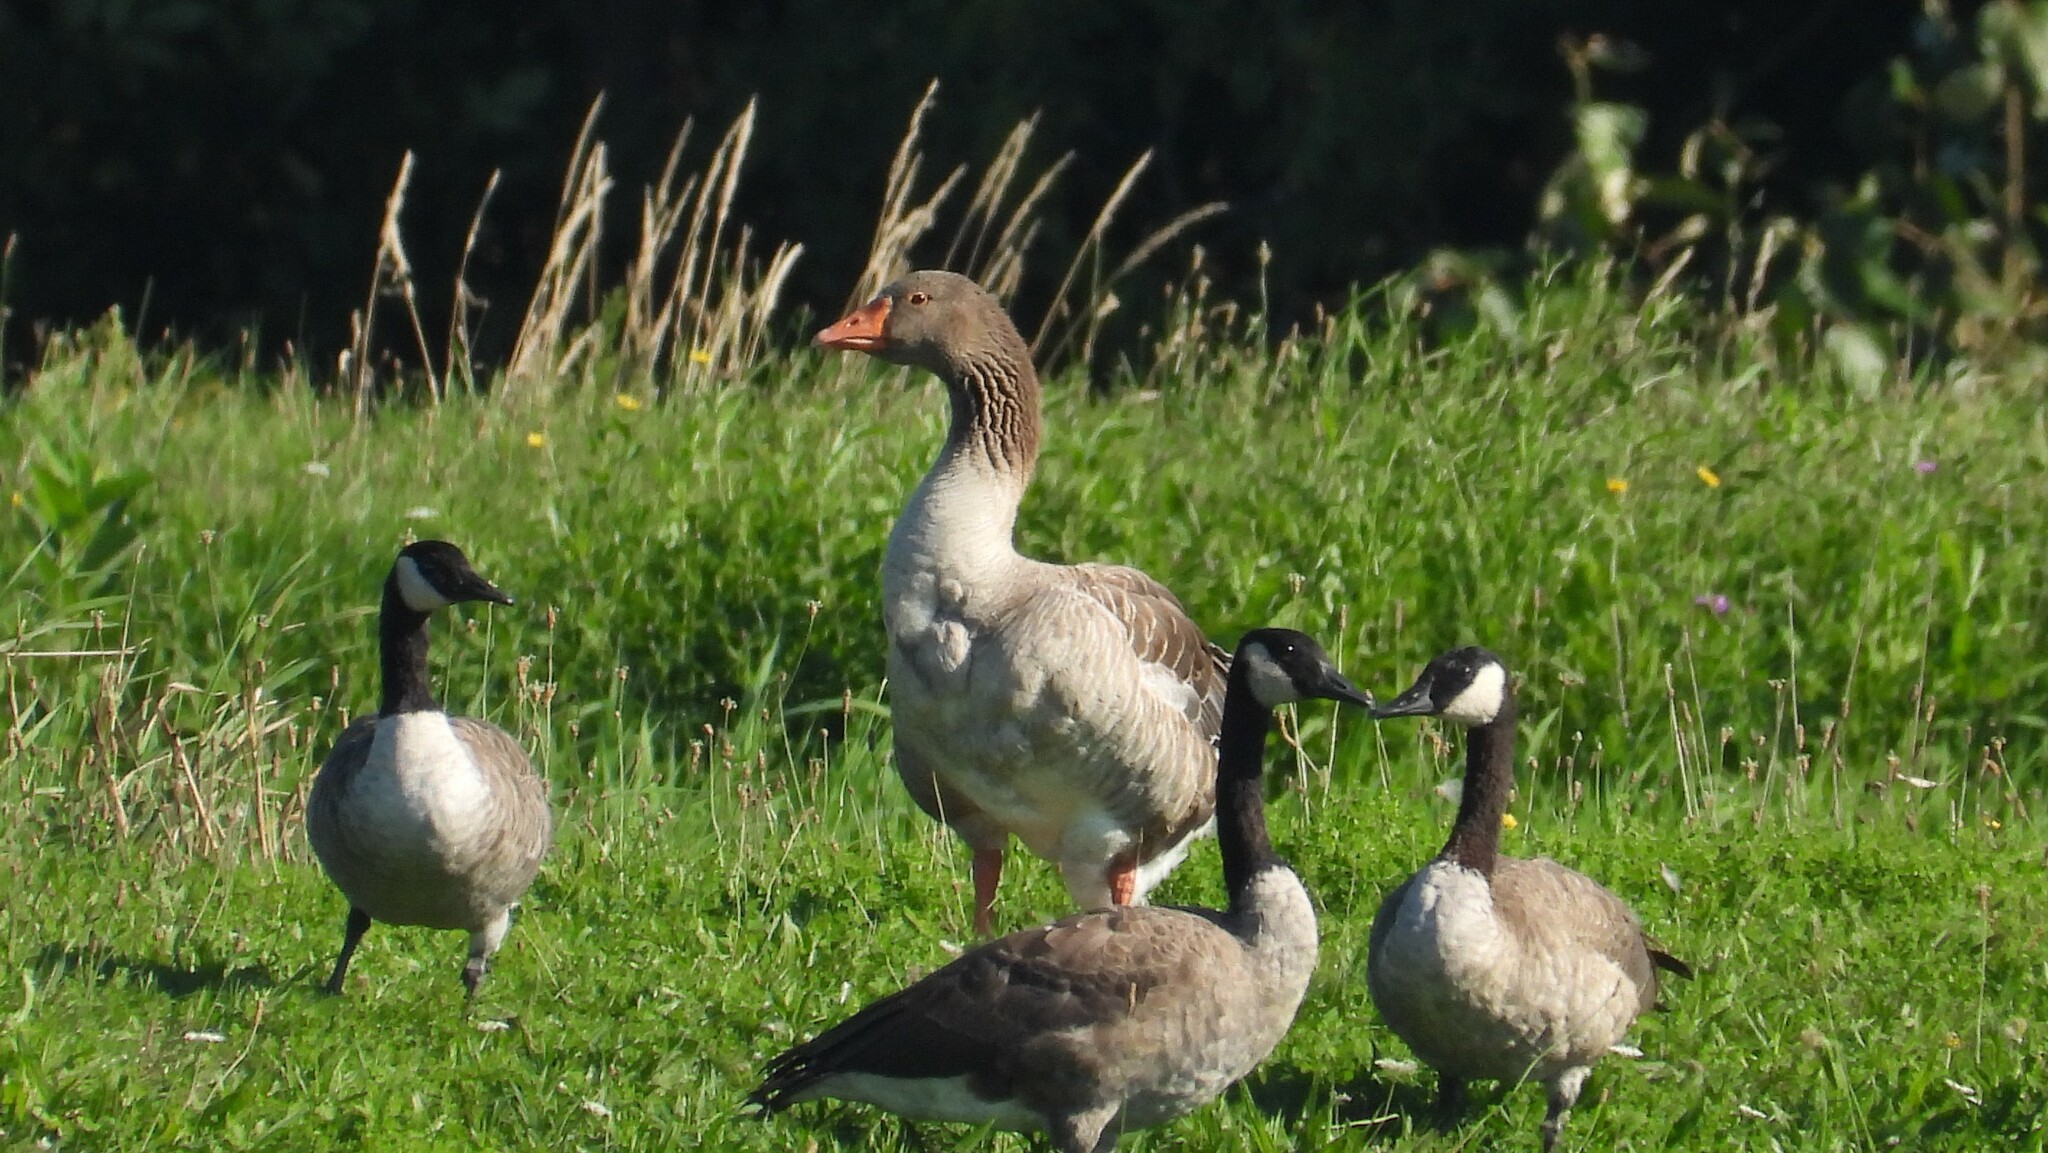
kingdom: Animalia
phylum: Chordata
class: Aves
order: Anseriformes
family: Anatidae
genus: Anser
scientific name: Anser anser
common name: Greylag goose
